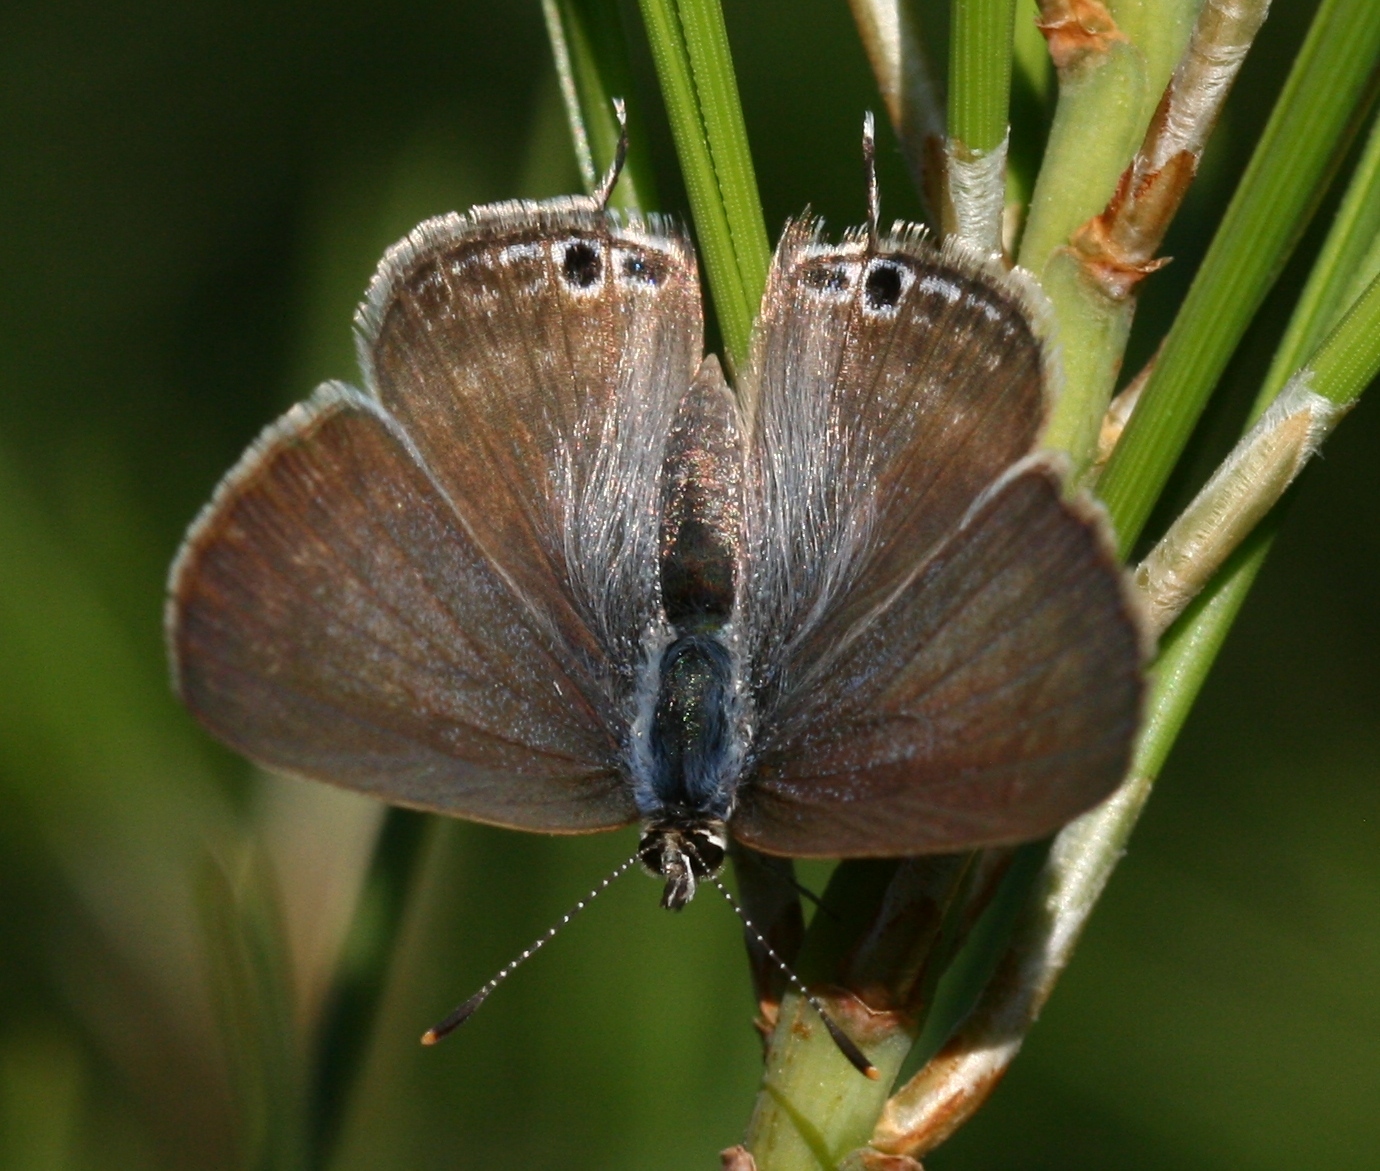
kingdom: Animalia
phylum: Arthropoda
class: Insecta
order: Lepidoptera
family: Lycaenidae
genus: Lampides
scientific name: Lampides boeticus
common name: Long-tailed blue
